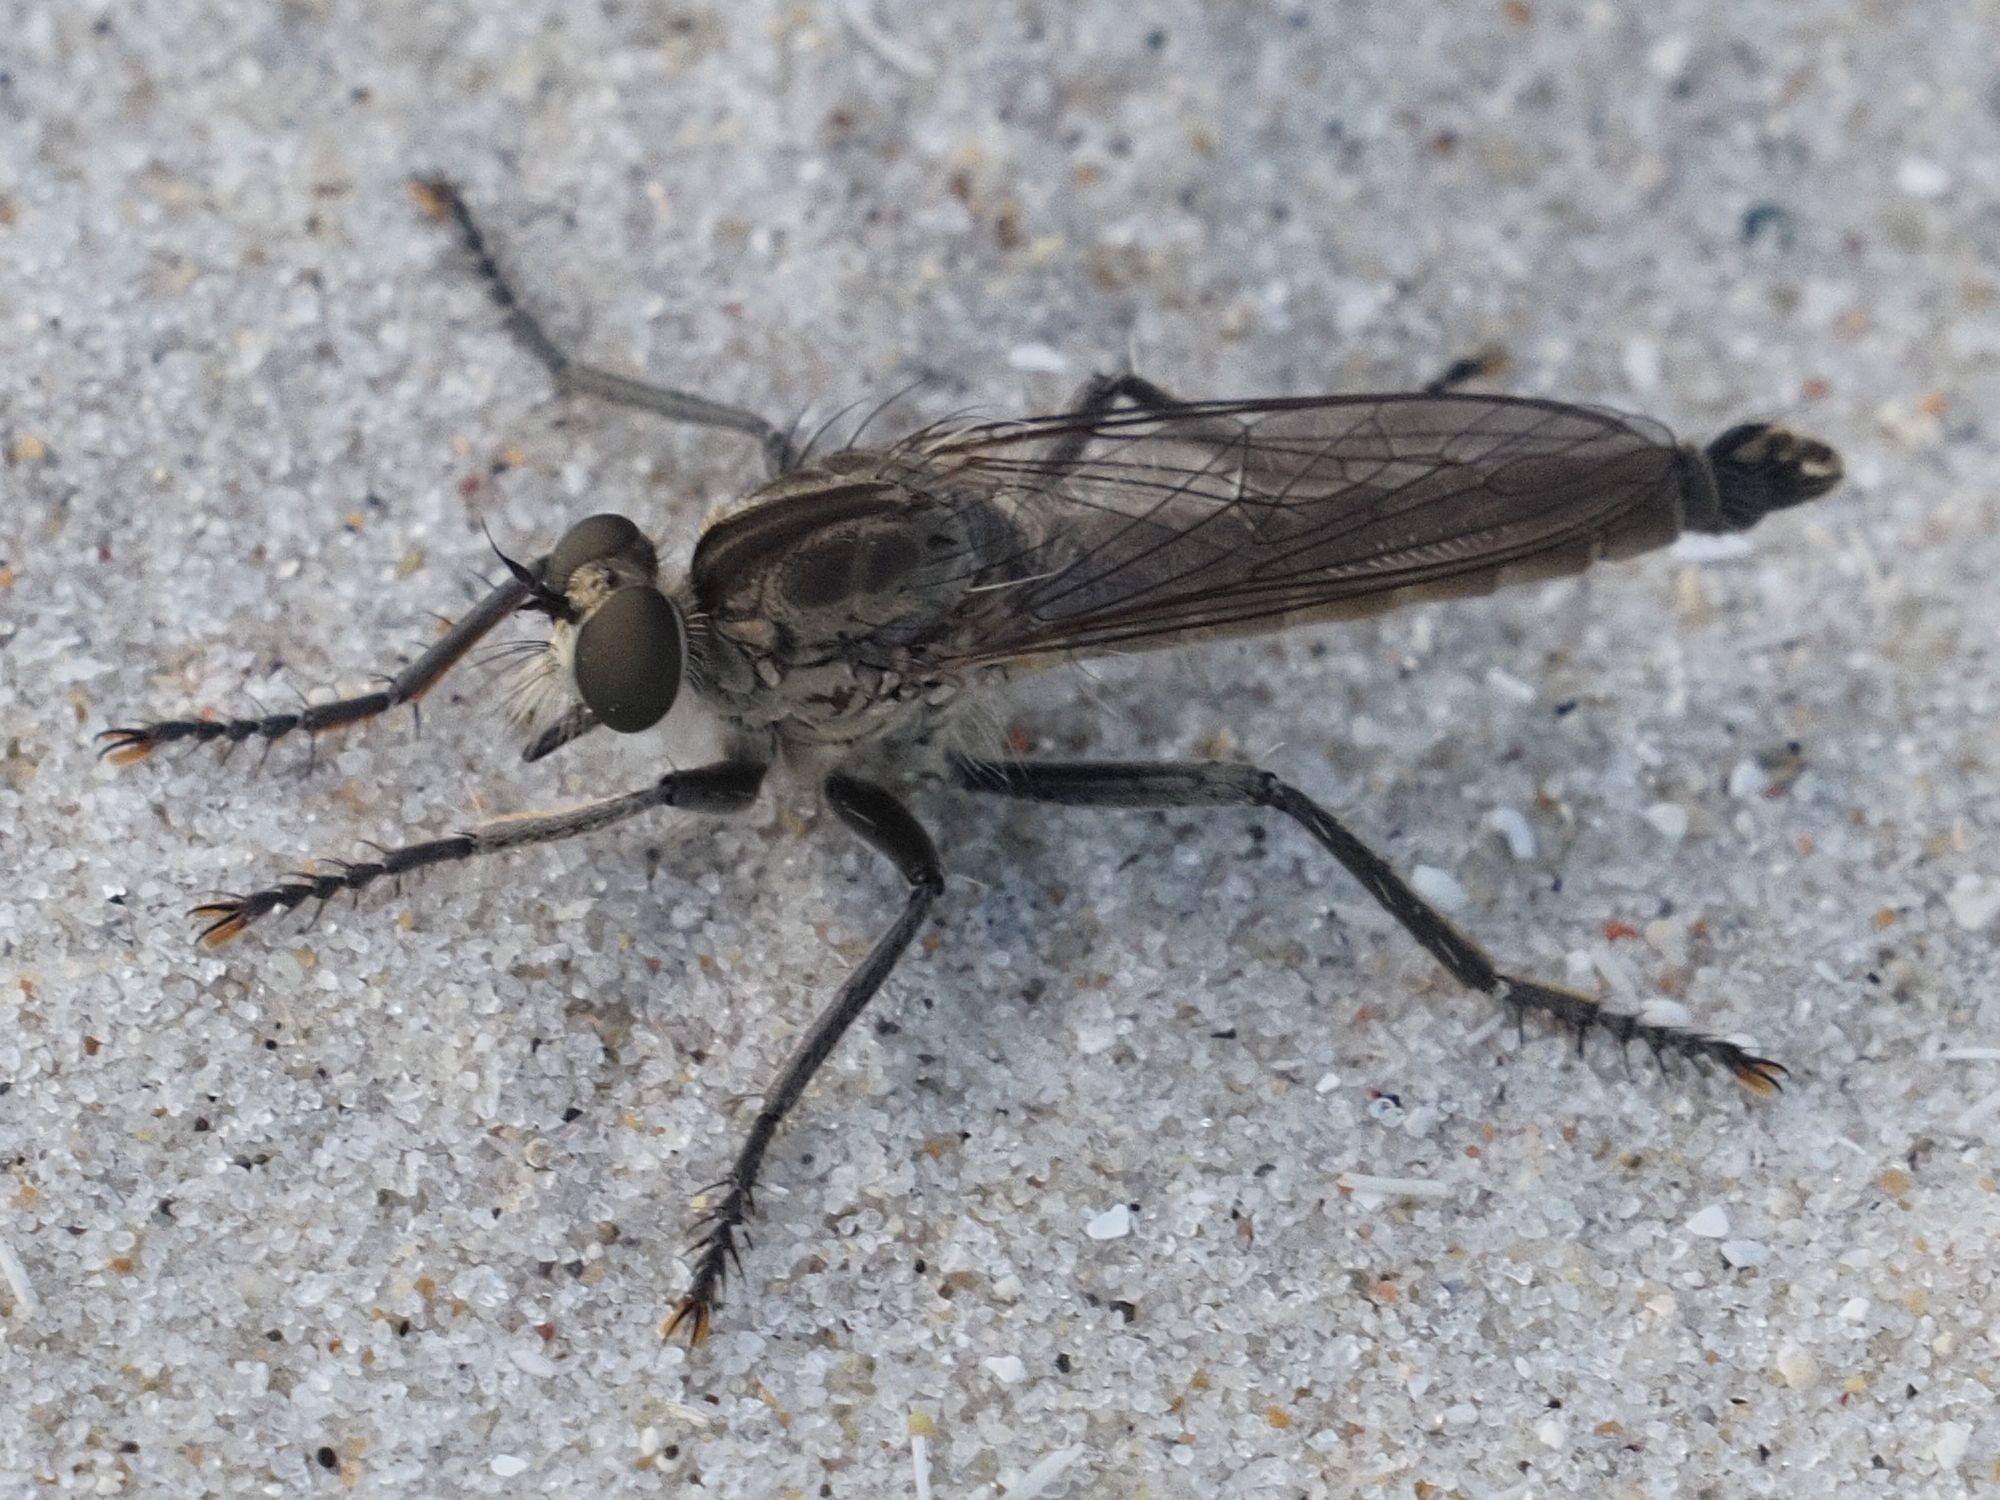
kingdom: Animalia
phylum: Arthropoda
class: Insecta
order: Diptera
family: Asilidae
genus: Philonicus
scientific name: Philonicus albiceps
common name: Dune robberfly
